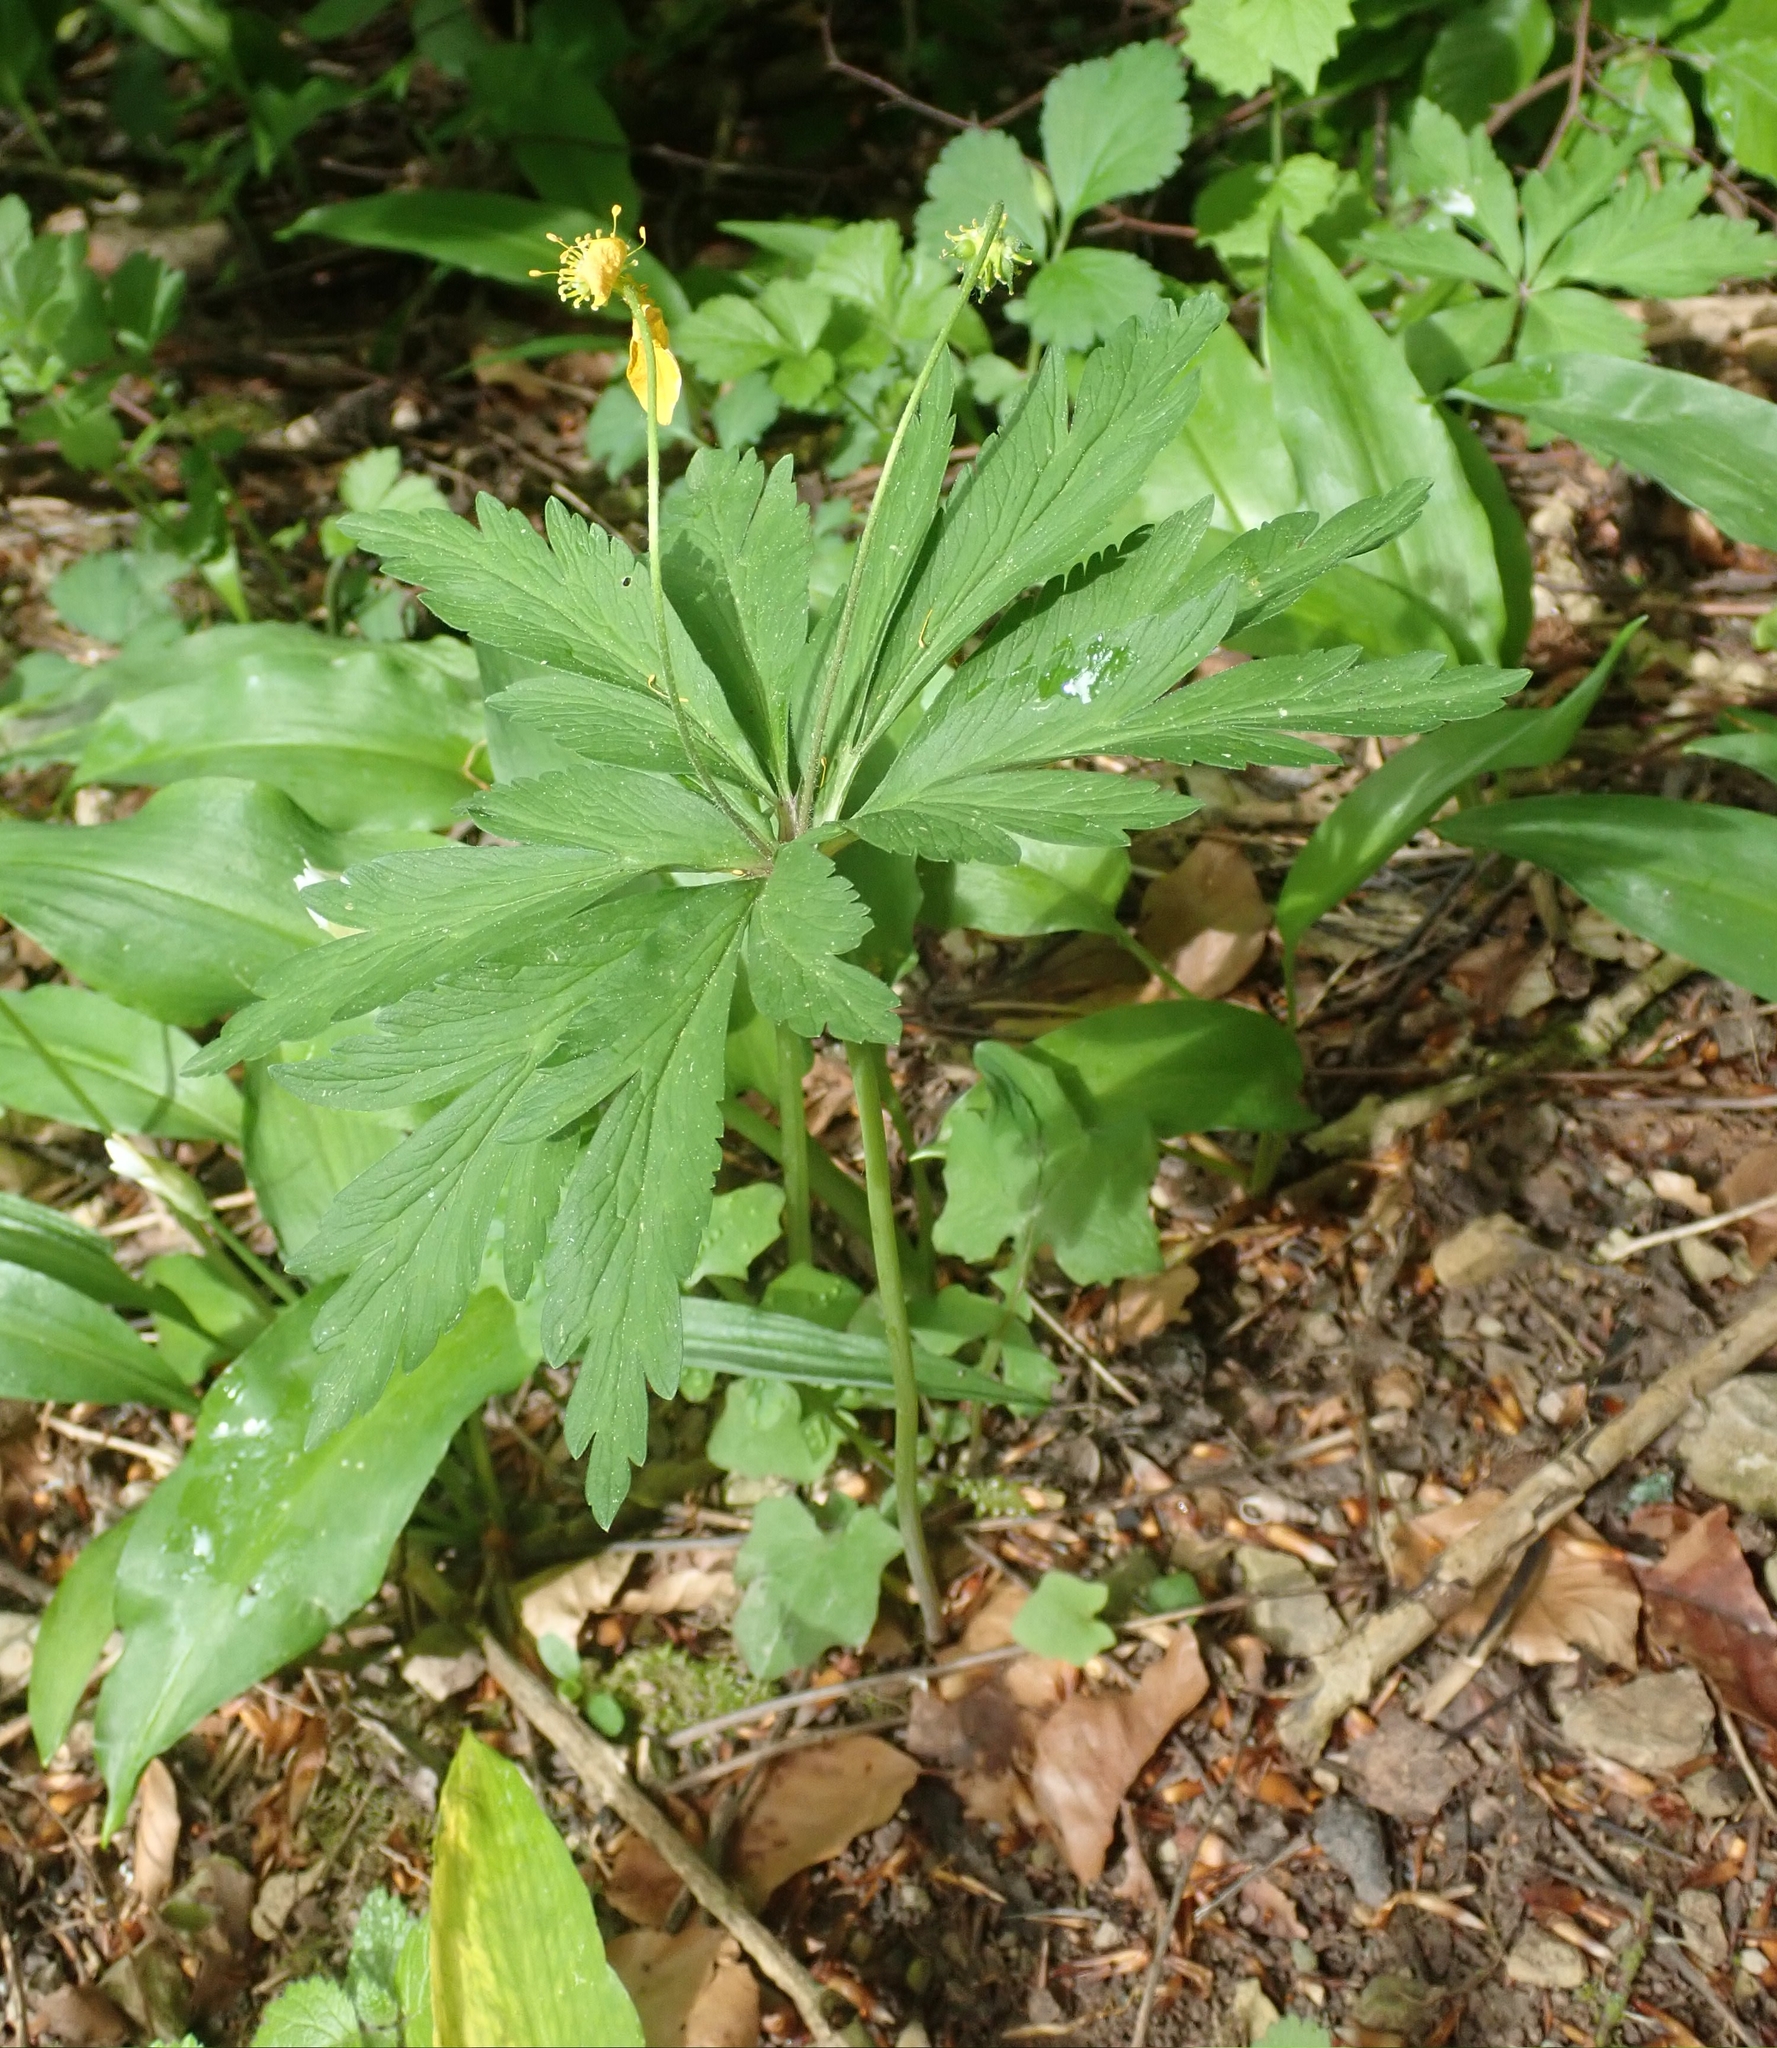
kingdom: Plantae
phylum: Tracheophyta
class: Magnoliopsida
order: Ranunculales
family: Ranunculaceae
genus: Anemone
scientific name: Anemone ranunculoides
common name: Yellow anemone
